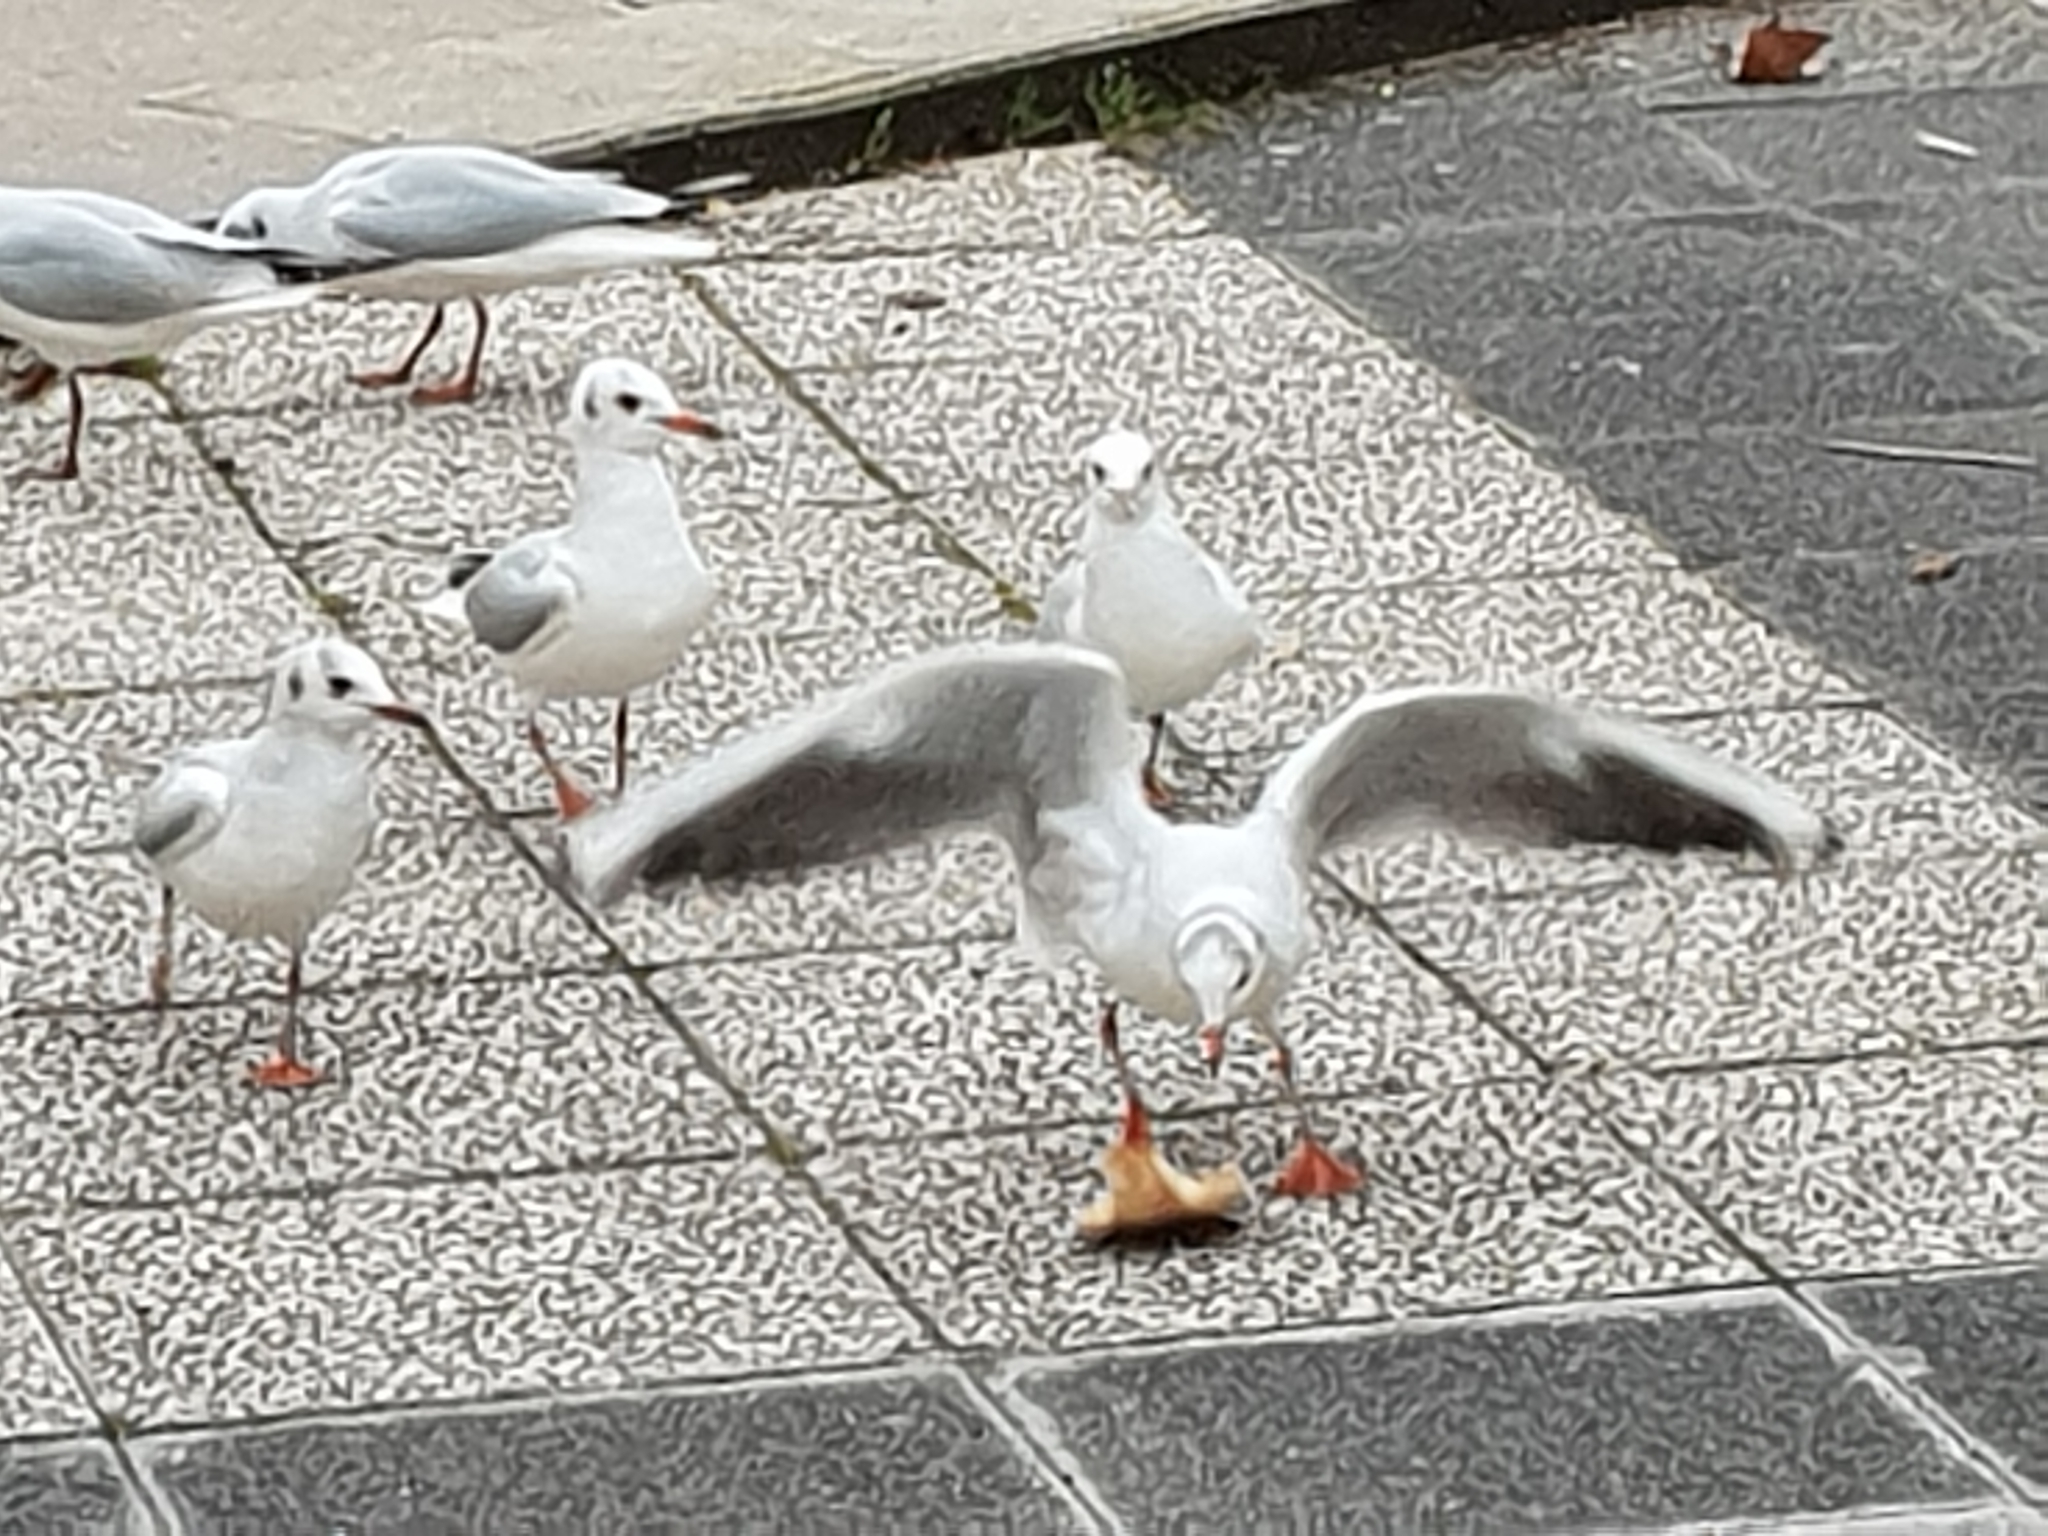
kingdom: Animalia
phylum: Chordata
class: Aves
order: Charadriiformes
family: Laridae
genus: Chroicocephalus
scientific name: Chroicocephalus ridibundus
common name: Black-headed gull
